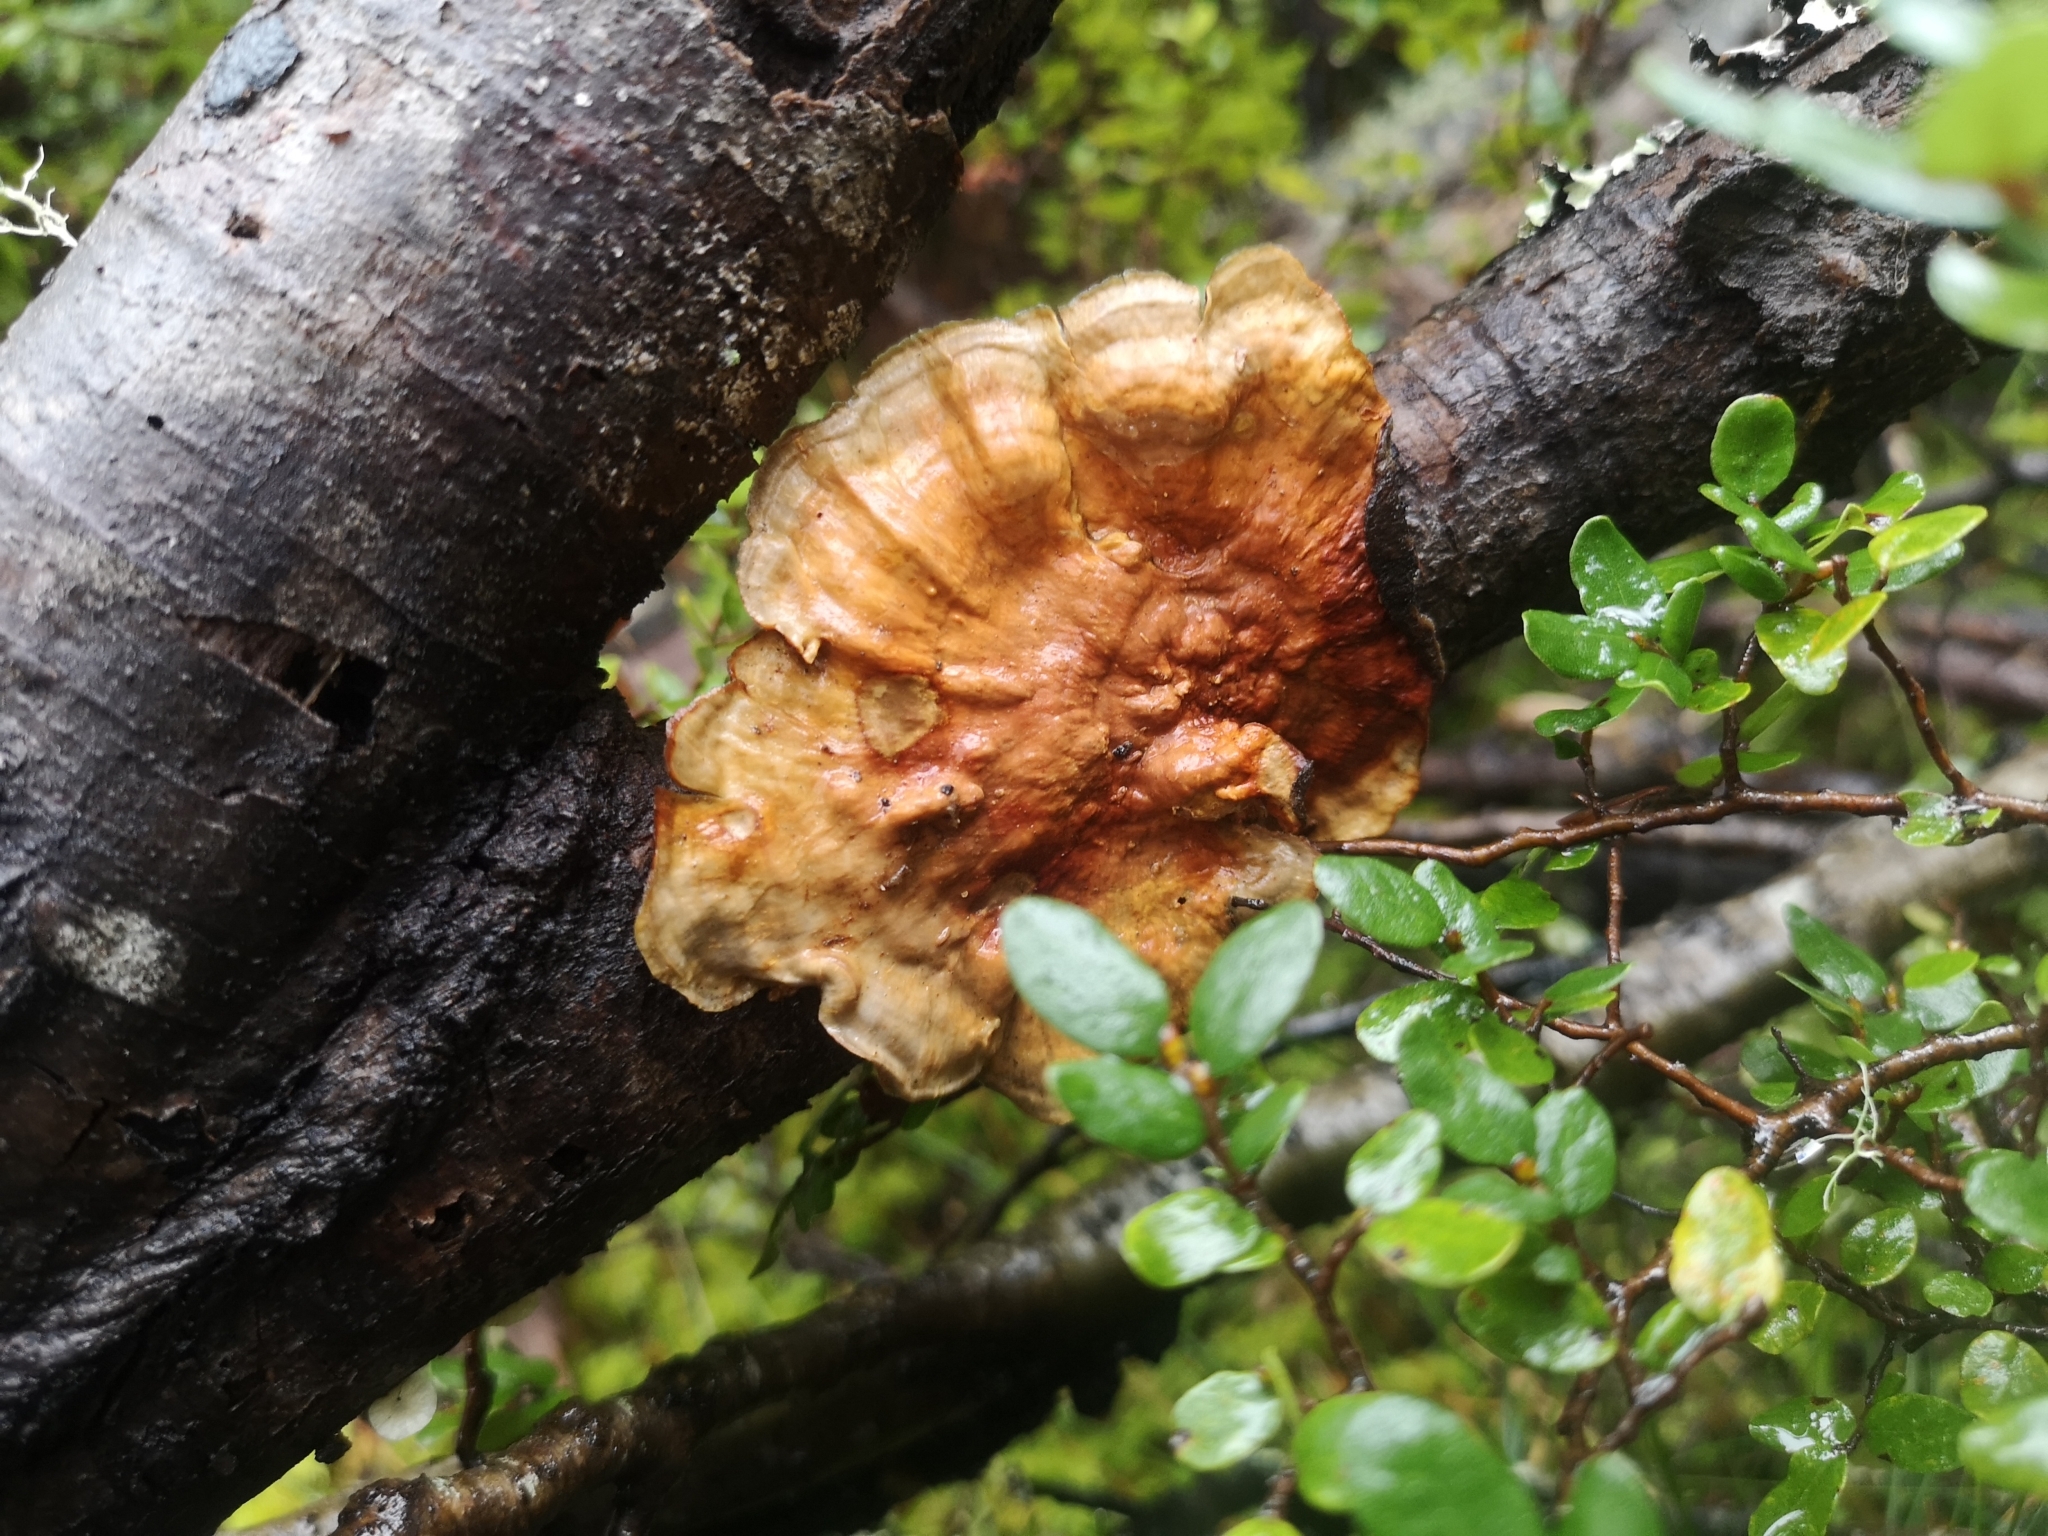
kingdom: Fungi
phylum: Basidiomycota
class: Agaricomycetes
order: Russulales
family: Stereaceae
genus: Stereum
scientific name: Stereum versicolor
